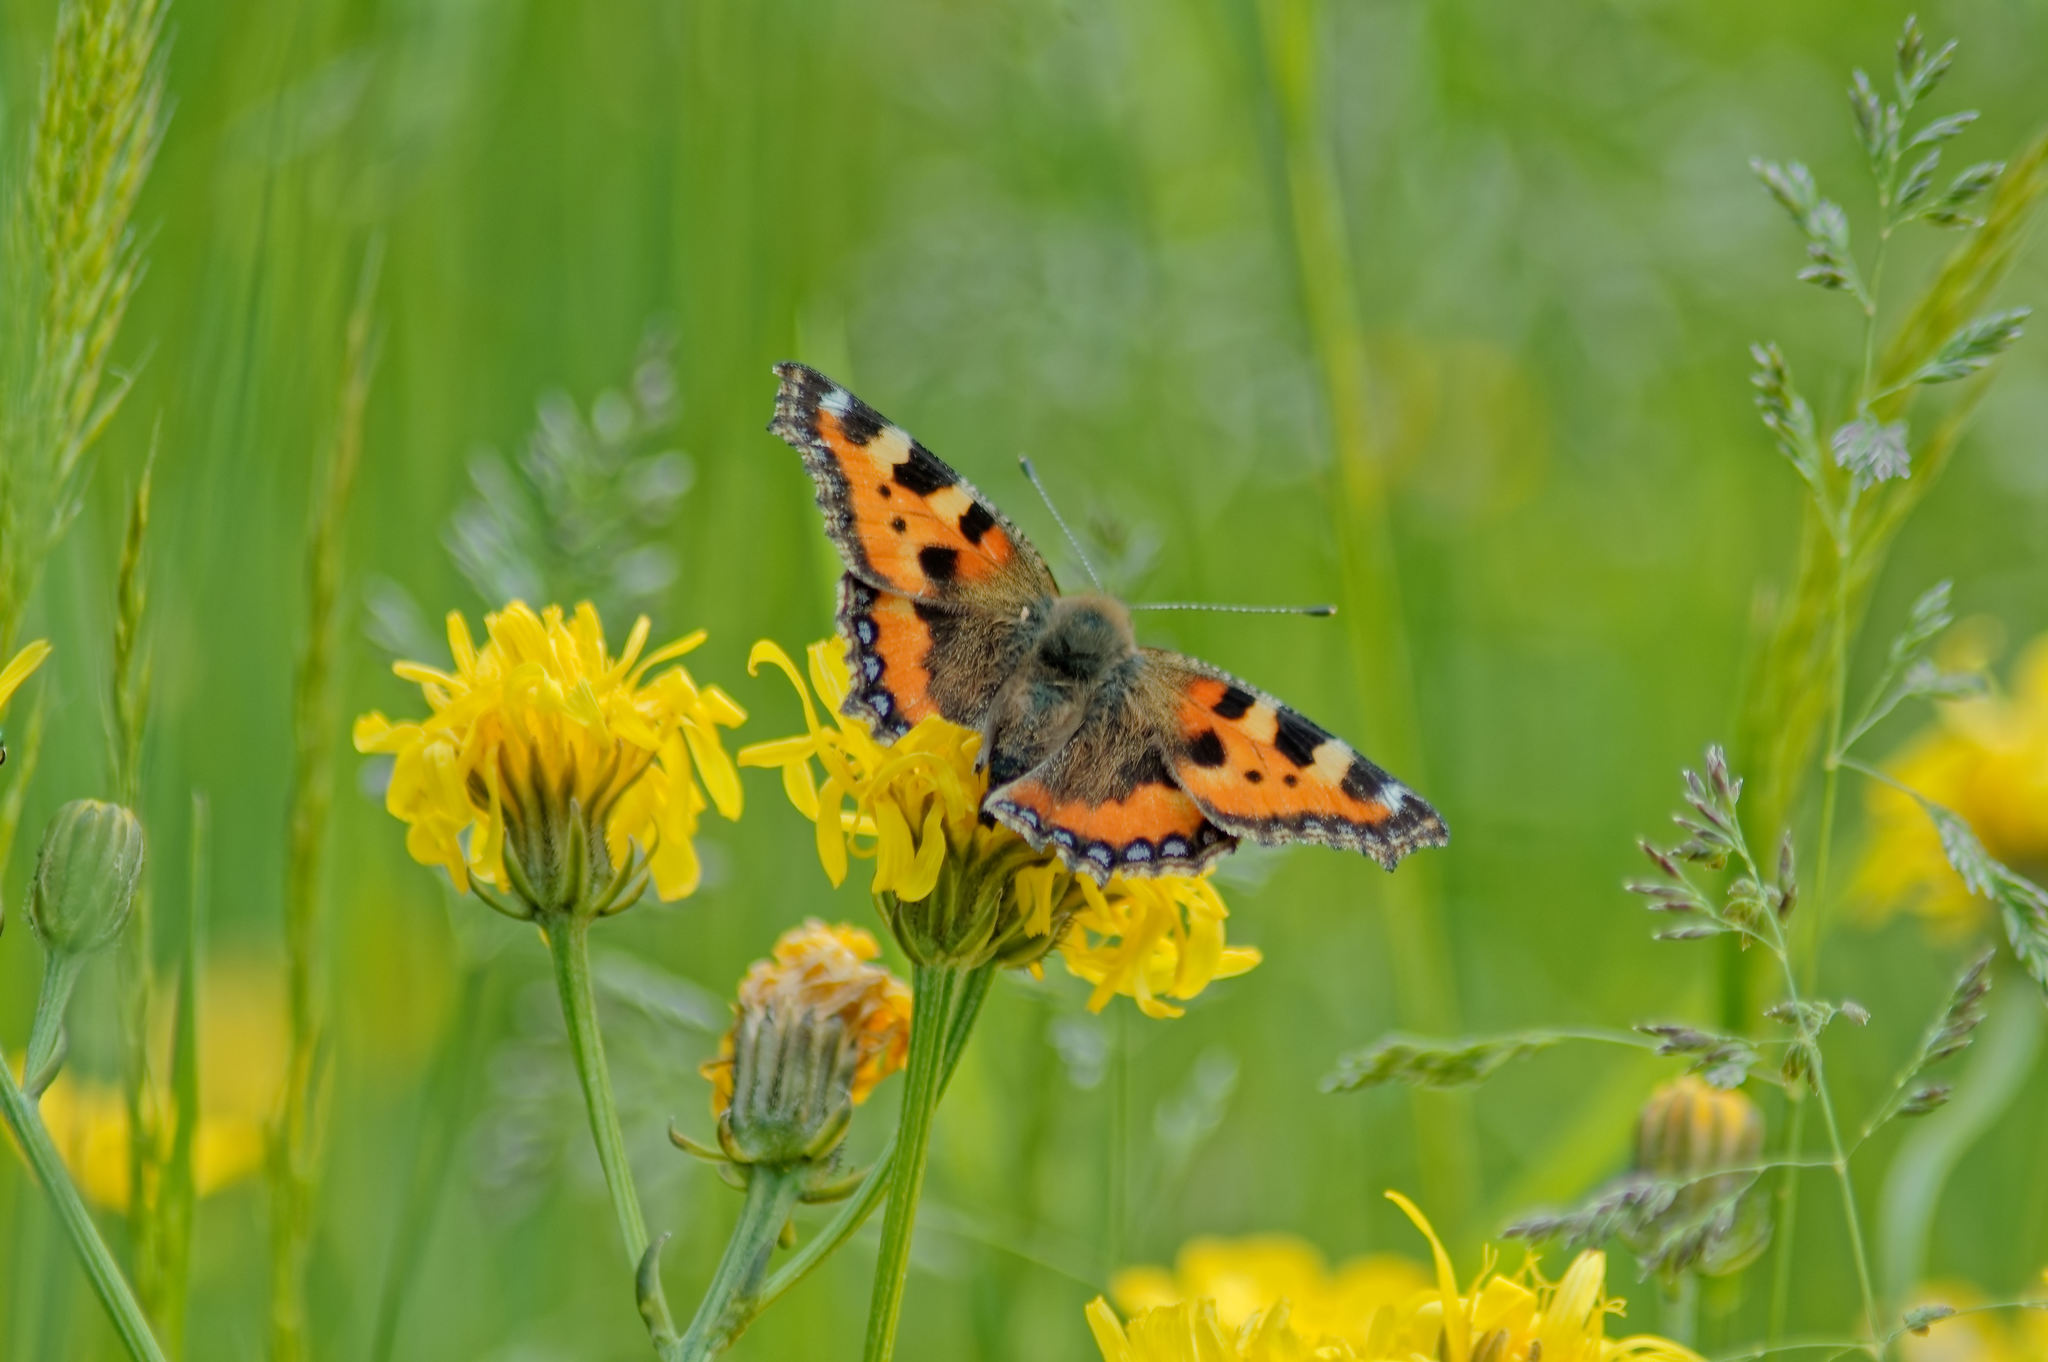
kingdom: Animalia
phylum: Arthropoda
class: Insecta
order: Lepidoptera
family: Nymphalidae
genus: Aglais
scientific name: Aglais urticae
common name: Small tortoiseshell
